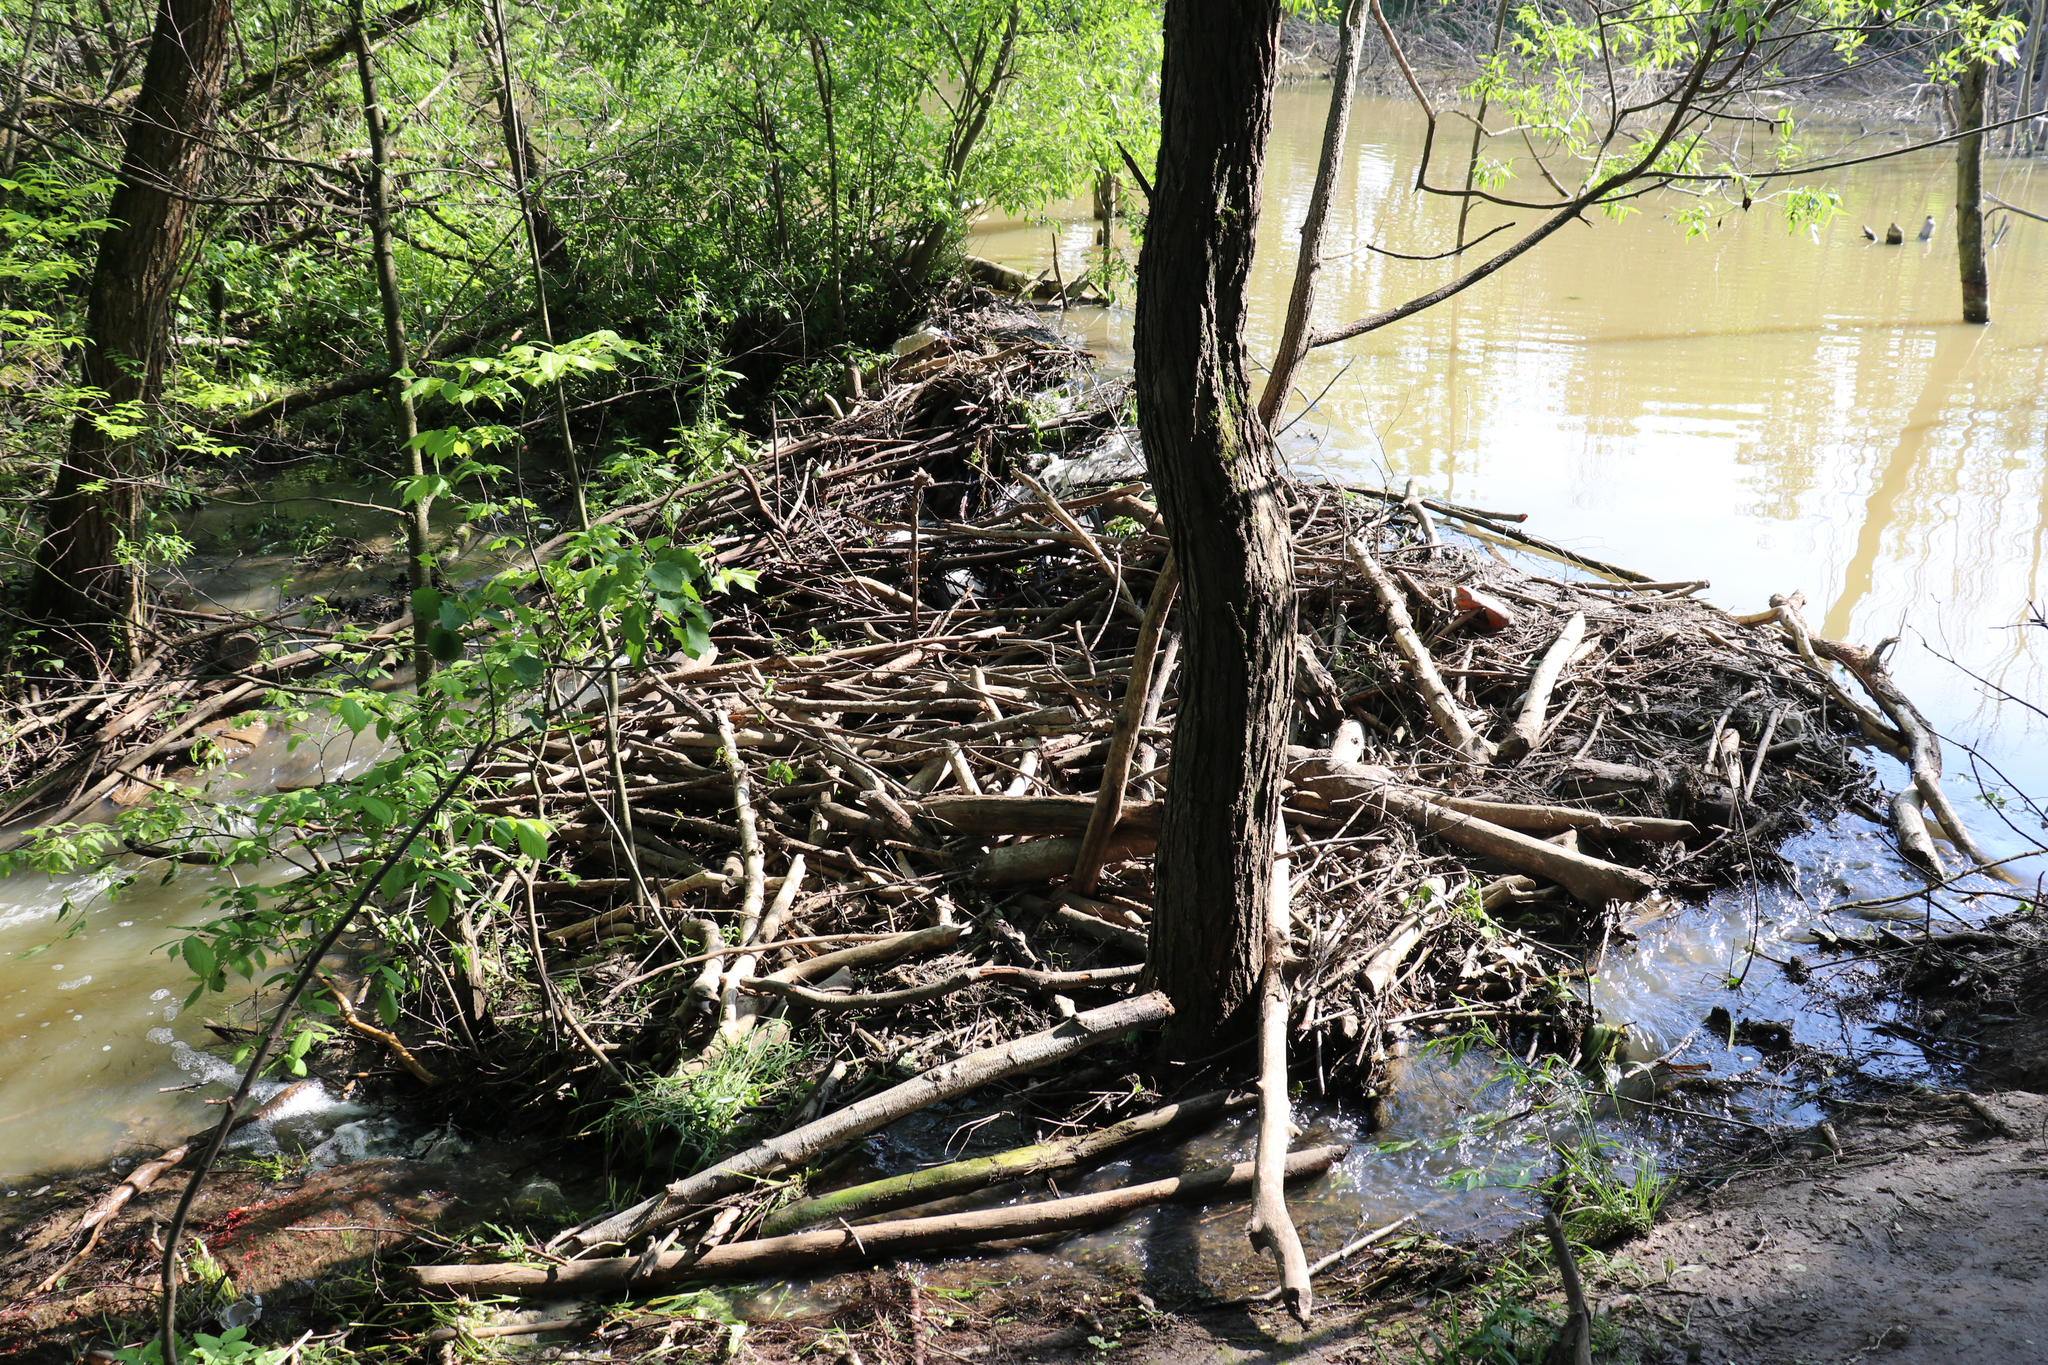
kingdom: Animalia
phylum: Chordata
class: Mammalia
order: Rodentia
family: Castoridae
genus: Castor
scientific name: Castor fiber
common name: Eurasian beaver
